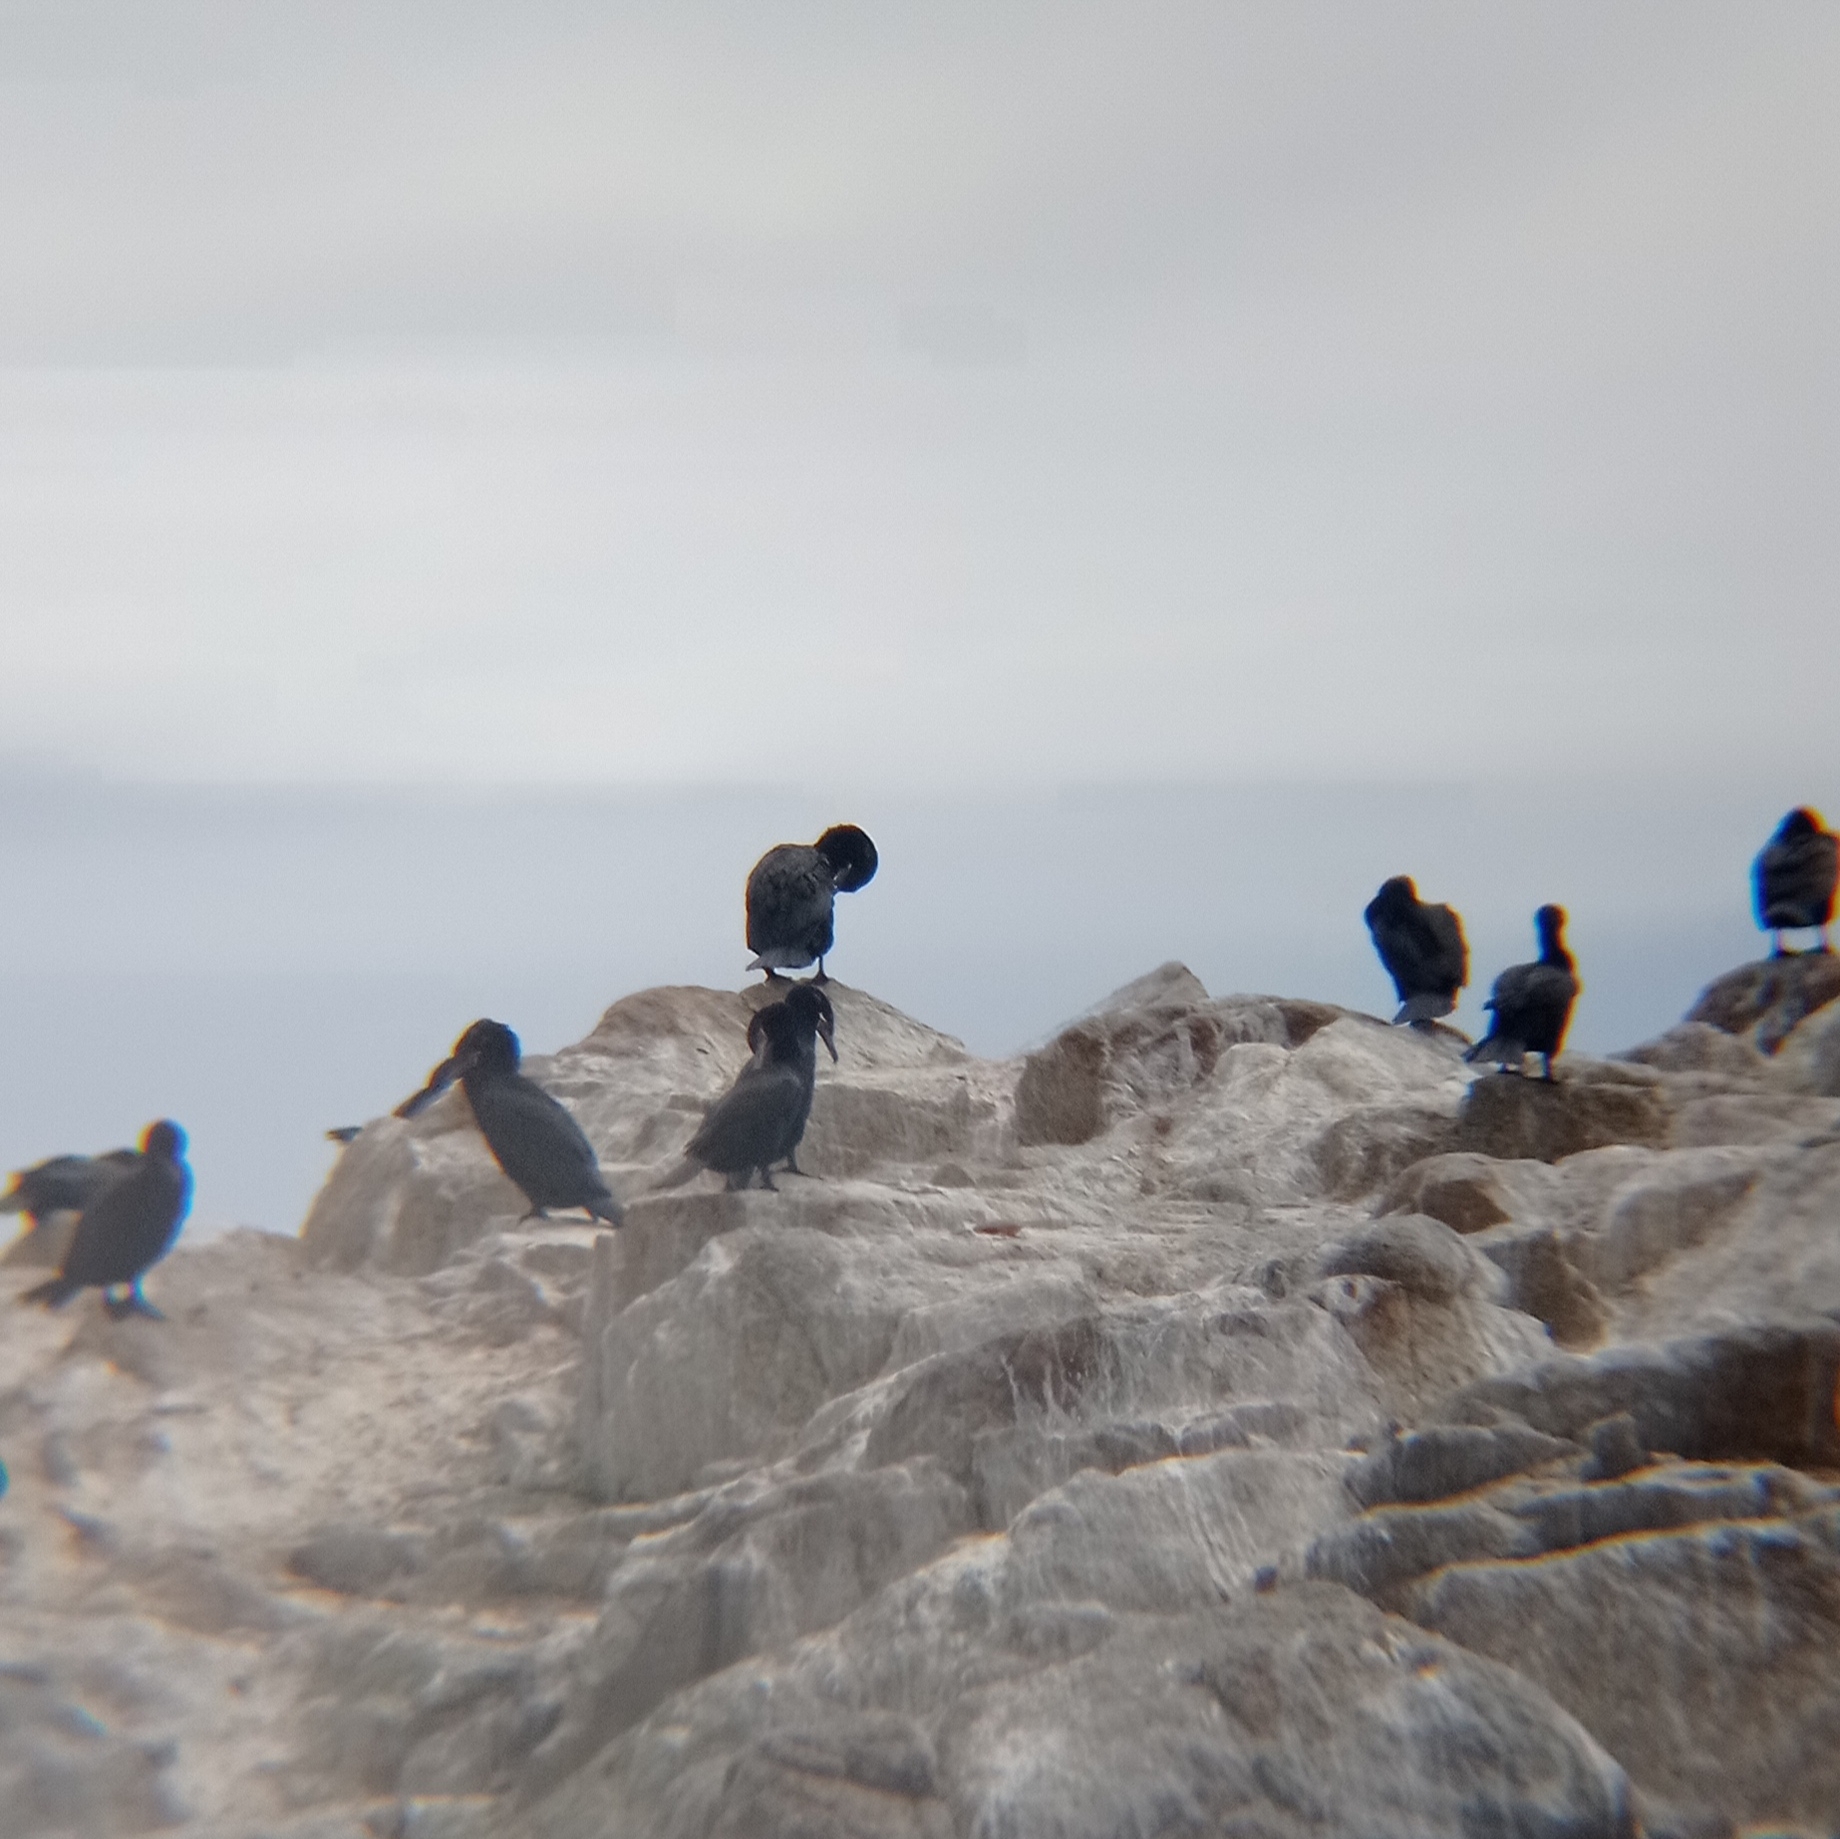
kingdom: Animalia
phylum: Chordata
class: Aves
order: Suliformes
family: Phalacrocoracidae
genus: Phalacrocorax
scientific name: Phalacrocorax brasilianus
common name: Neotropic cormorant
